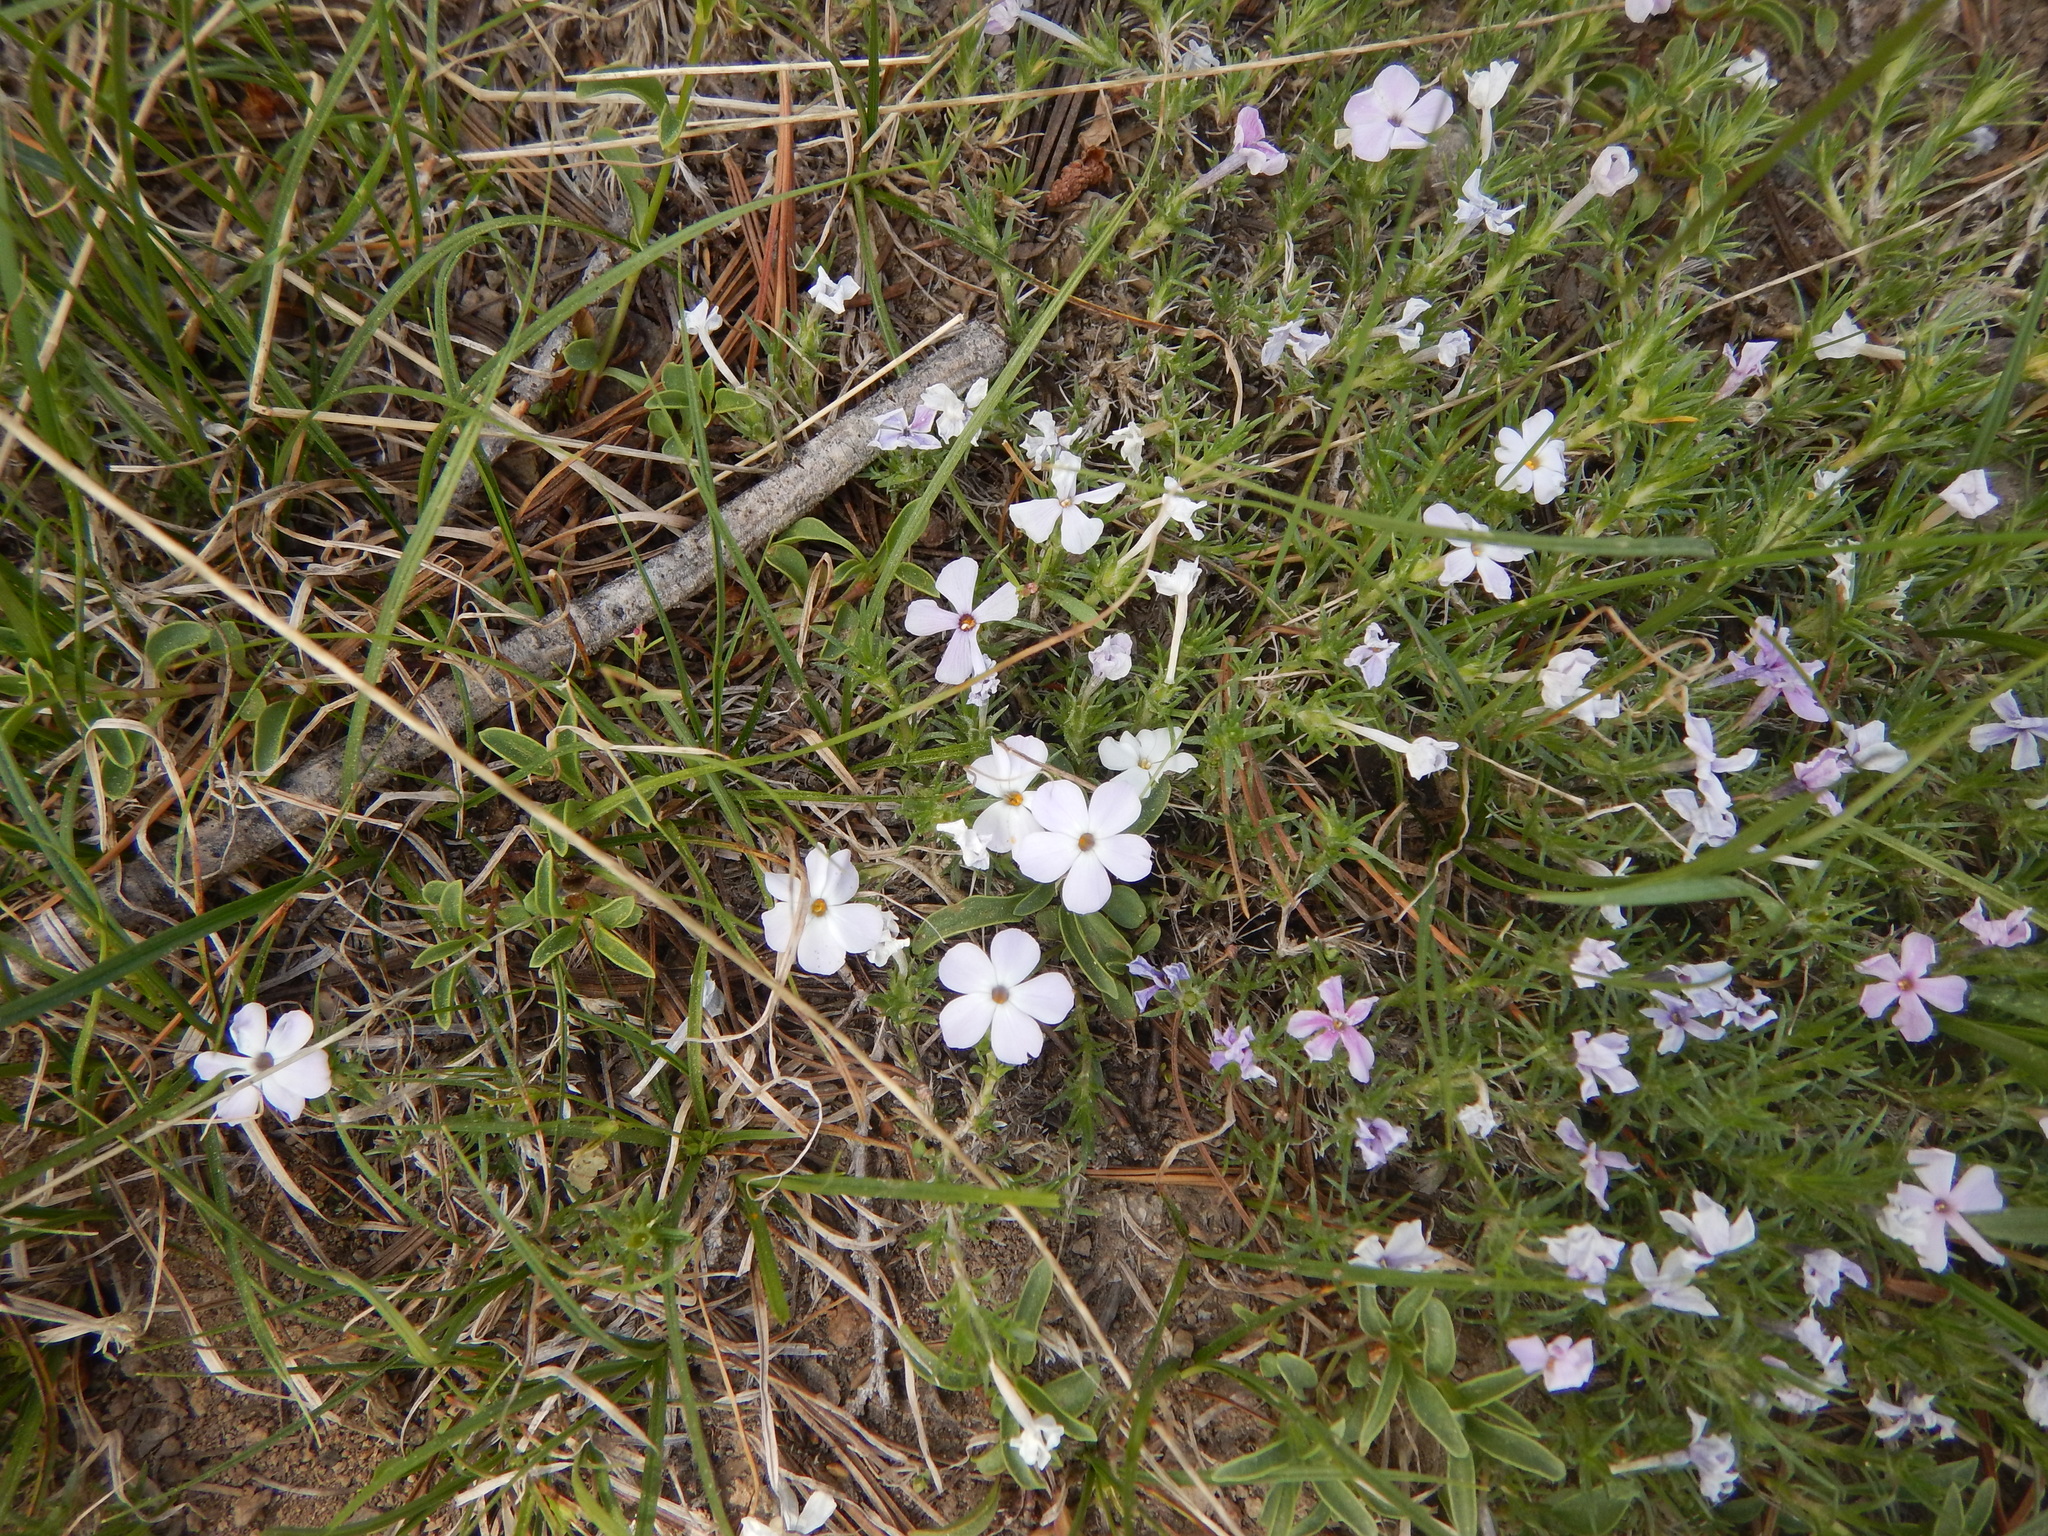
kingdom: Plantae
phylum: Tracheophyta
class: Magnoliopsida
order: Ericales
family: Polemoniaceae
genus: Phlox
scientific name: Phlox diffusa
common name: Mat phlox
